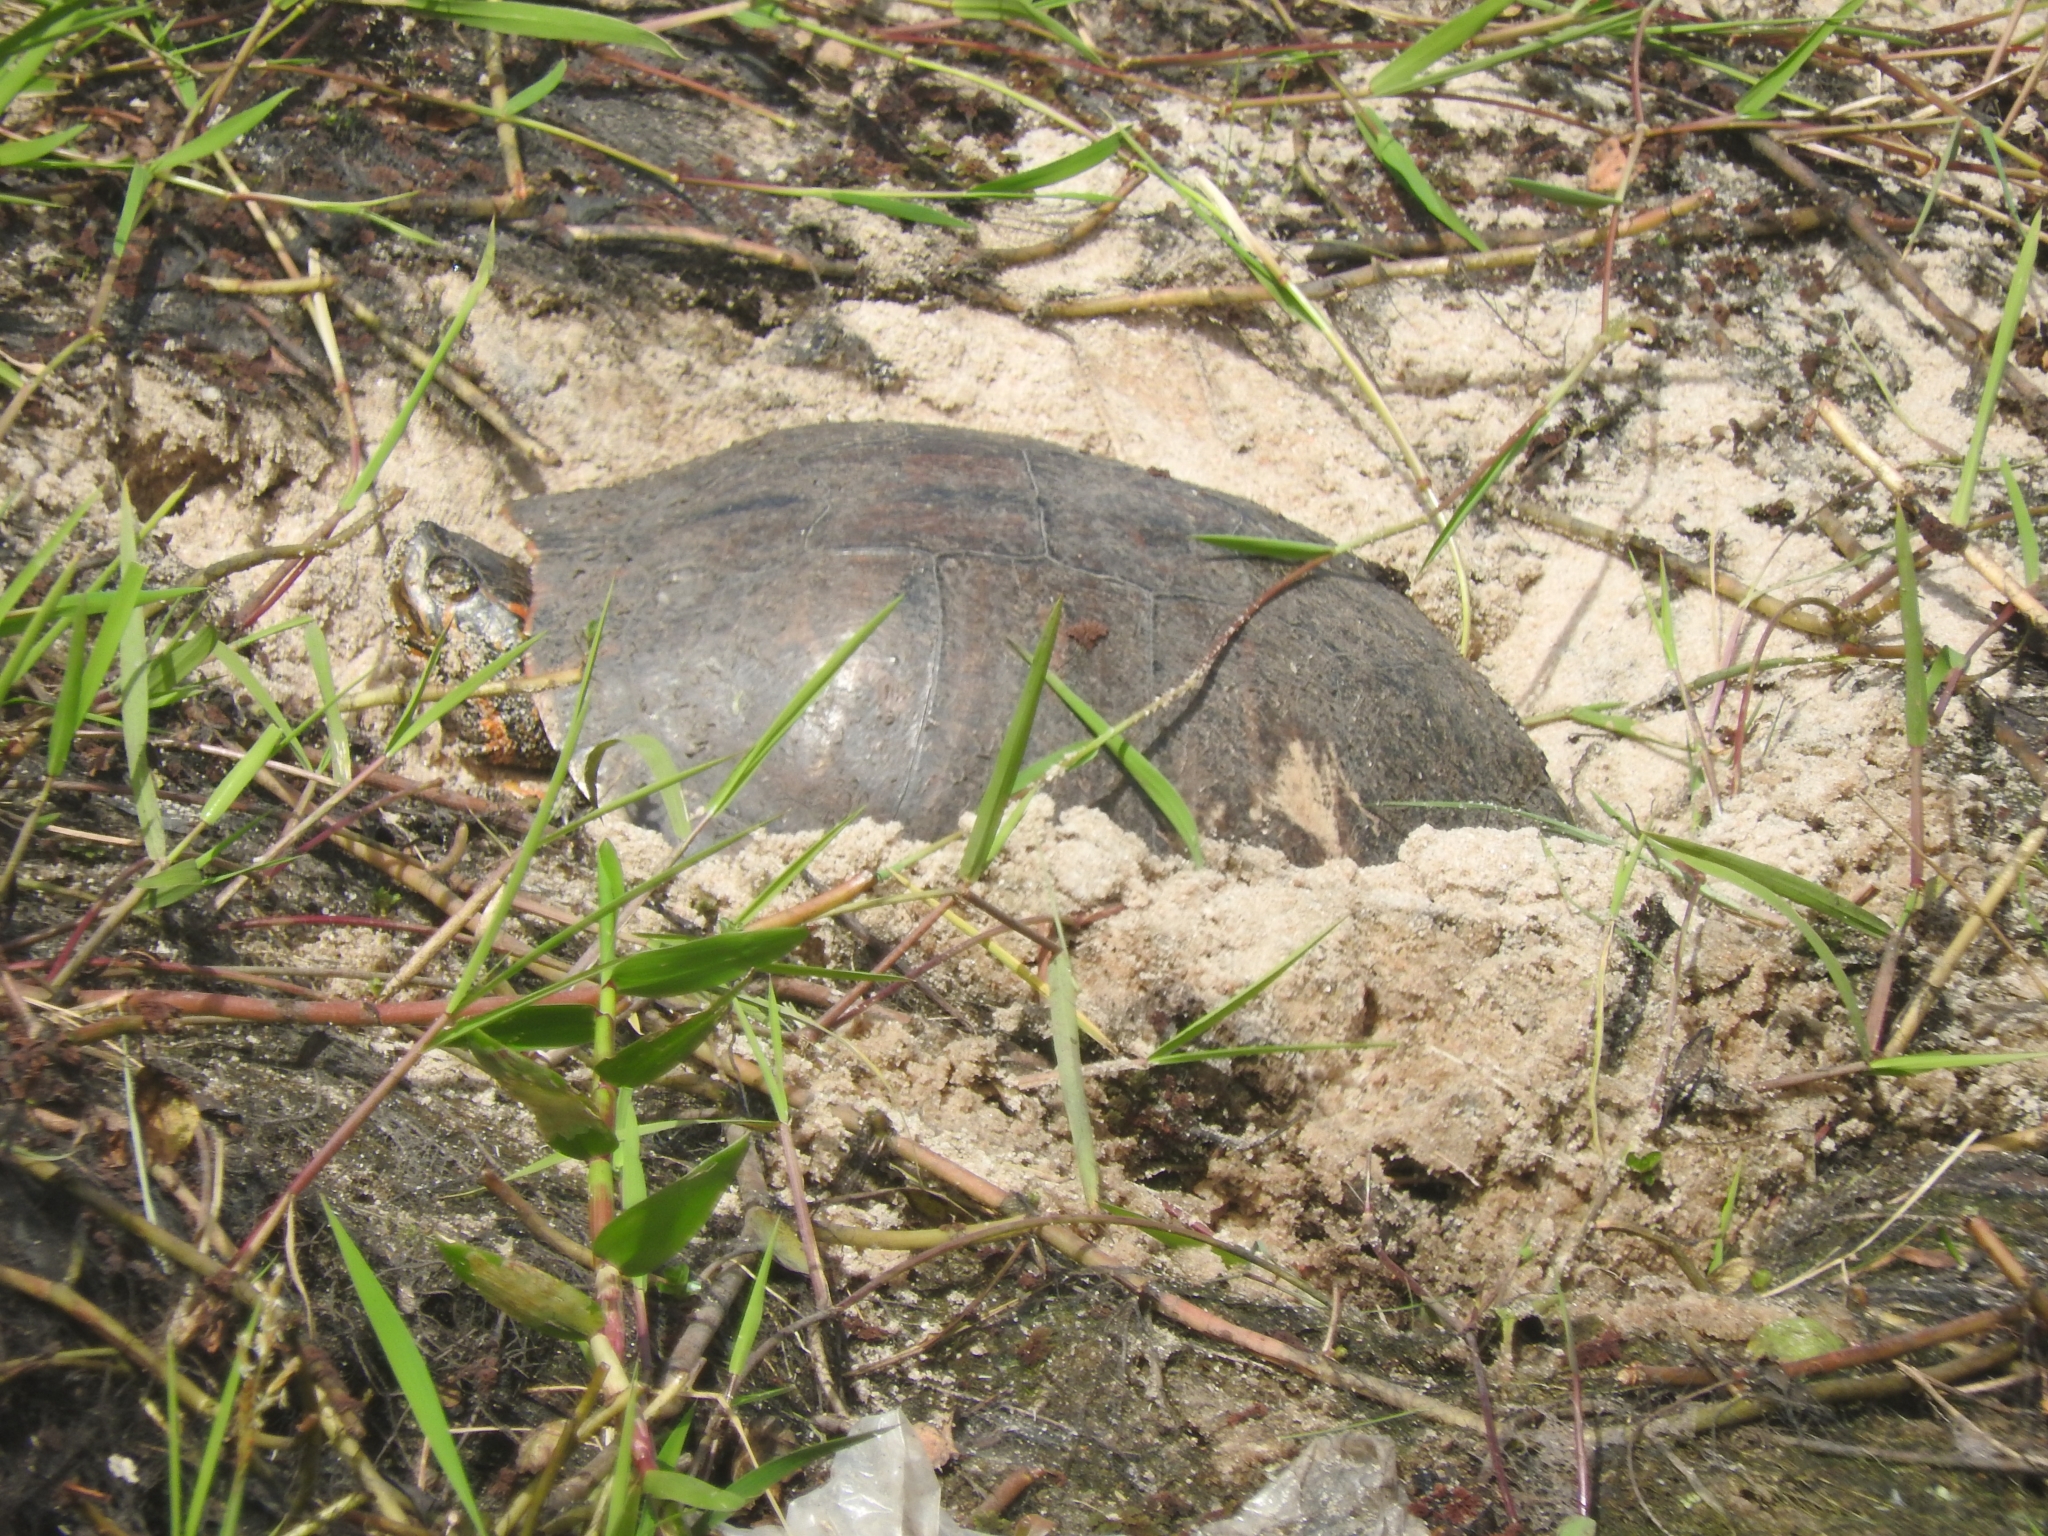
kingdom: Animalia
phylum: Chordata
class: Testudines
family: Emydidae
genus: Trachemys
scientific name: Trachemys dorbigni
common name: Black-bellied slider
